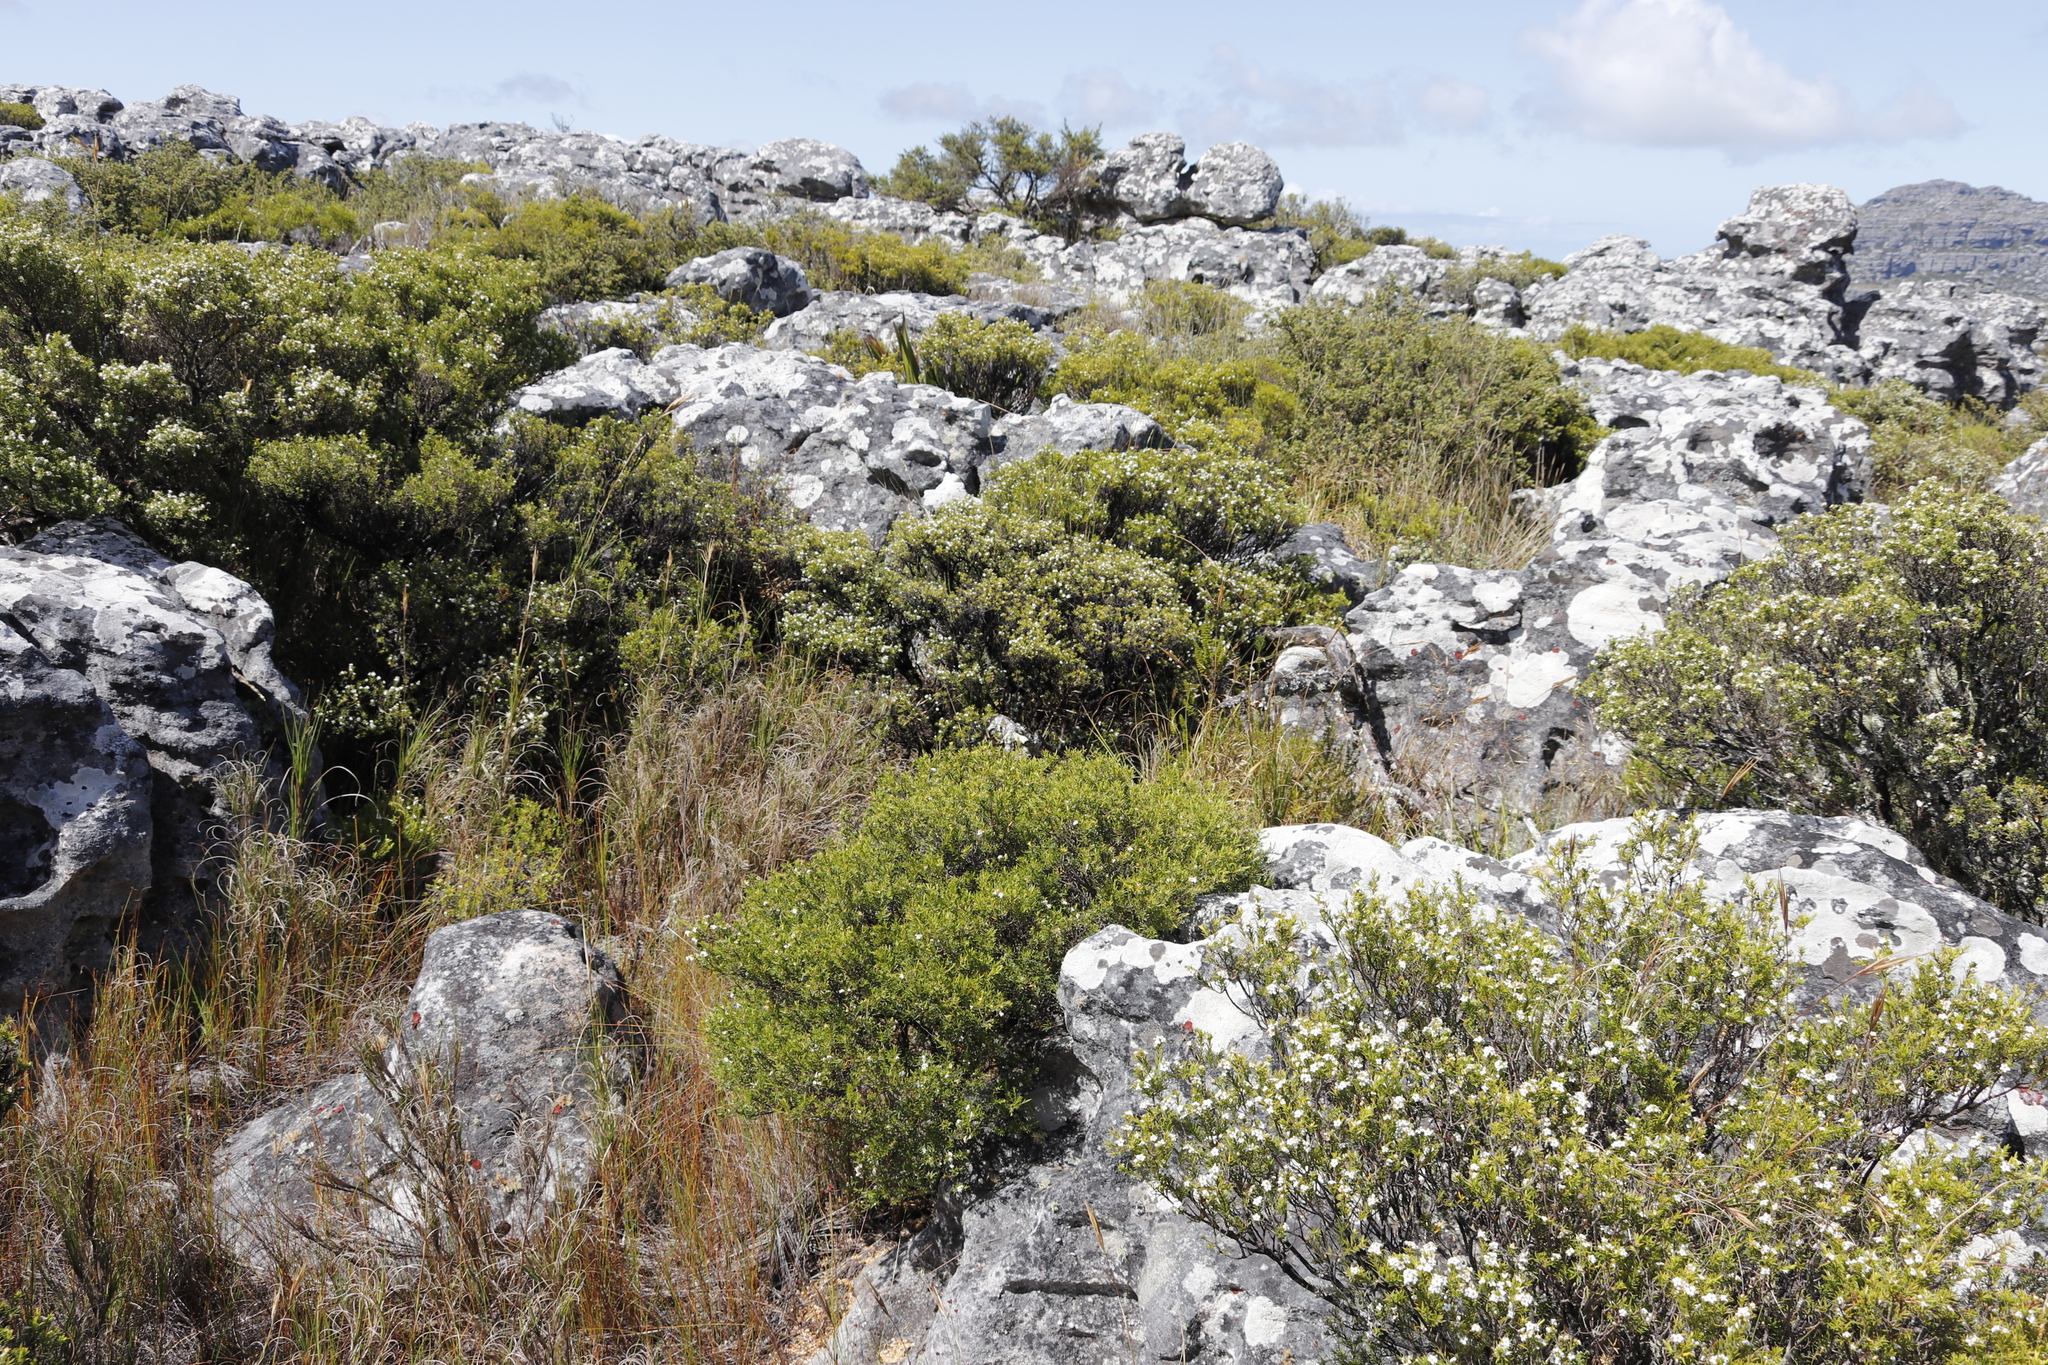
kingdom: Plantae
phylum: Tracheophyta
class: Magnoliopsida
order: Sapindales
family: Rutaceae
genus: Coleonema
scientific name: Coleonema album
